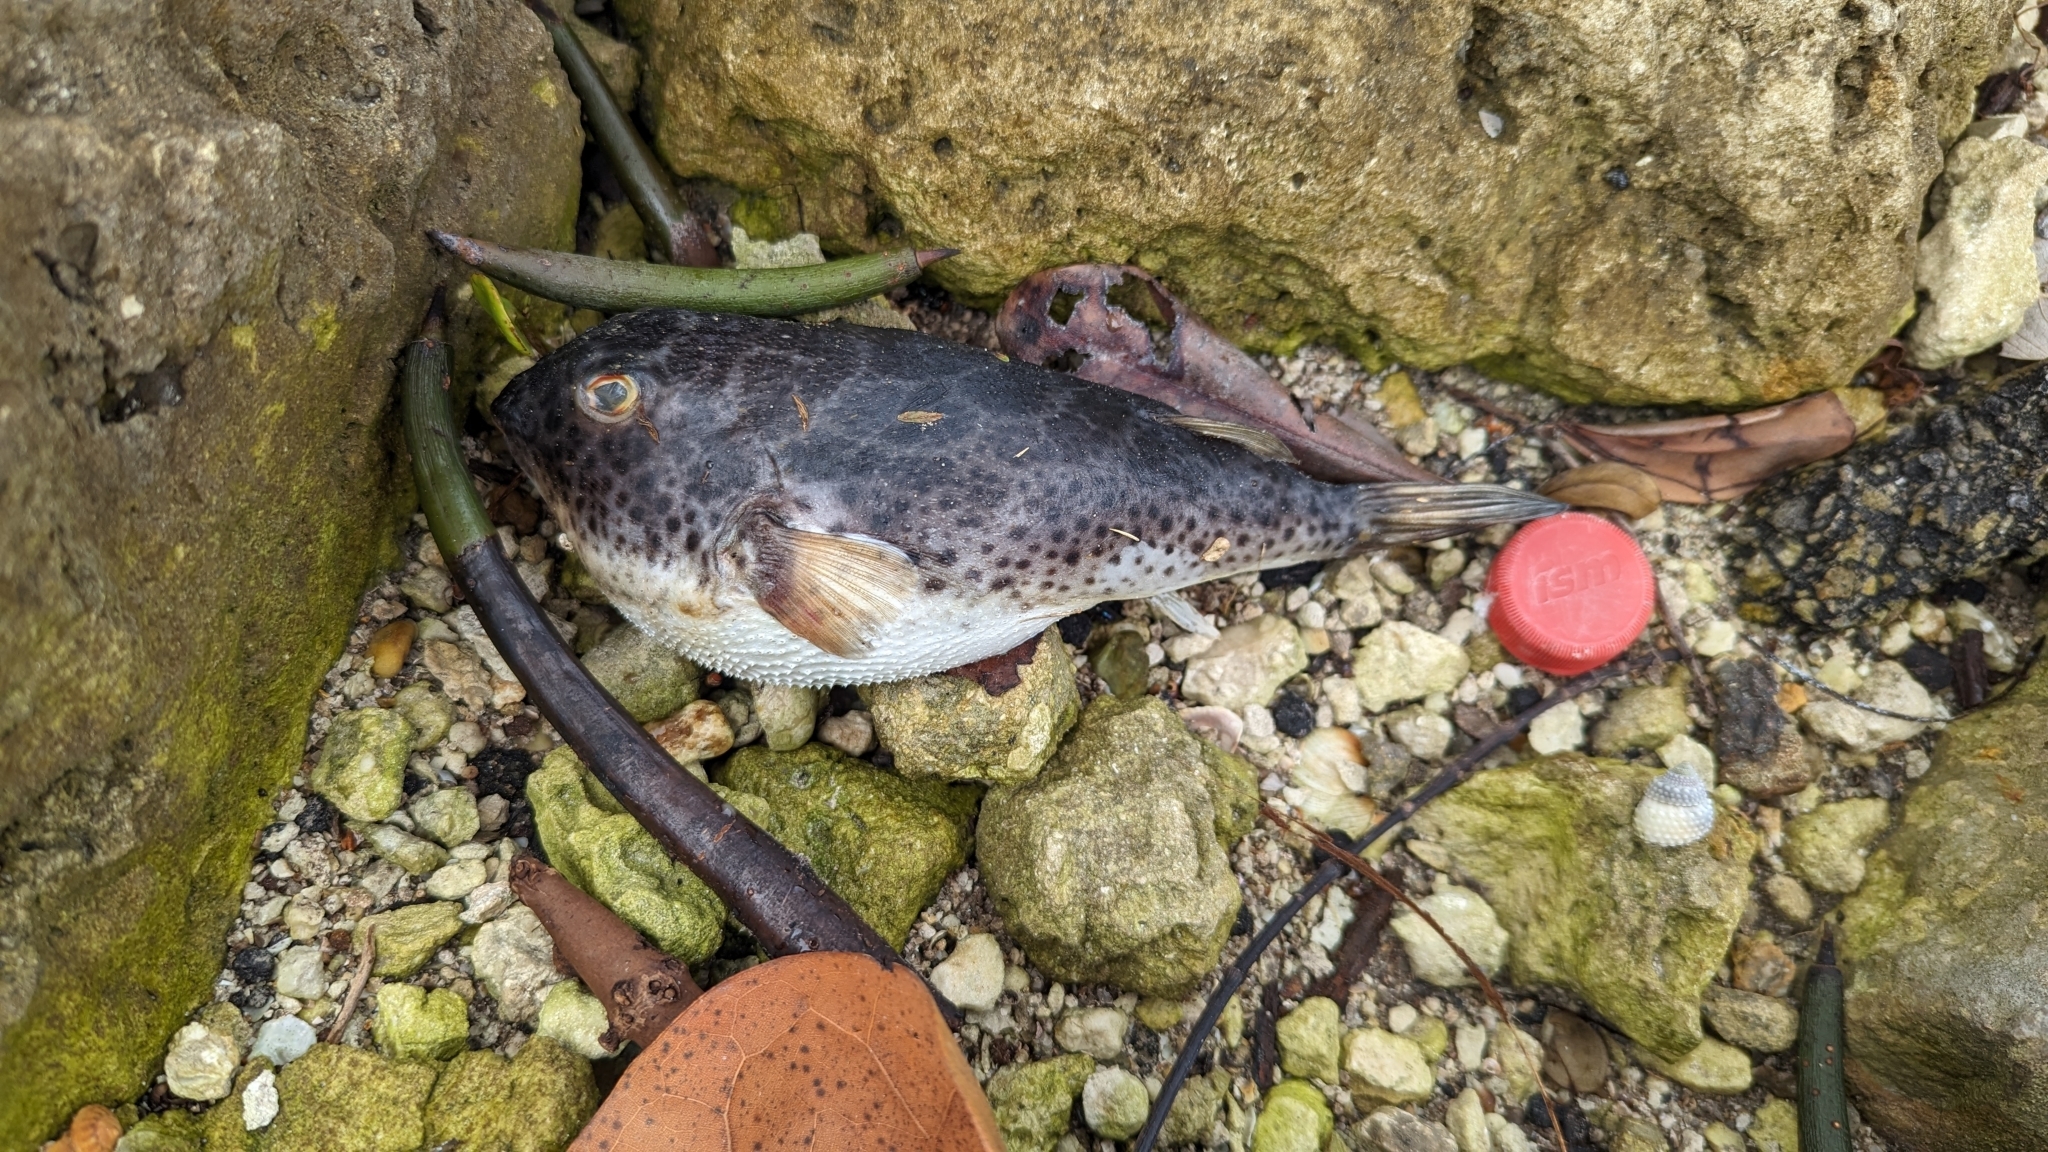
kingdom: Animalia
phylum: Chordata
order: Tetraodontiformes
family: Tetraodontidae
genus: Sphoeroides
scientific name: Sphoeroides testudineus
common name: Checkered puffer
